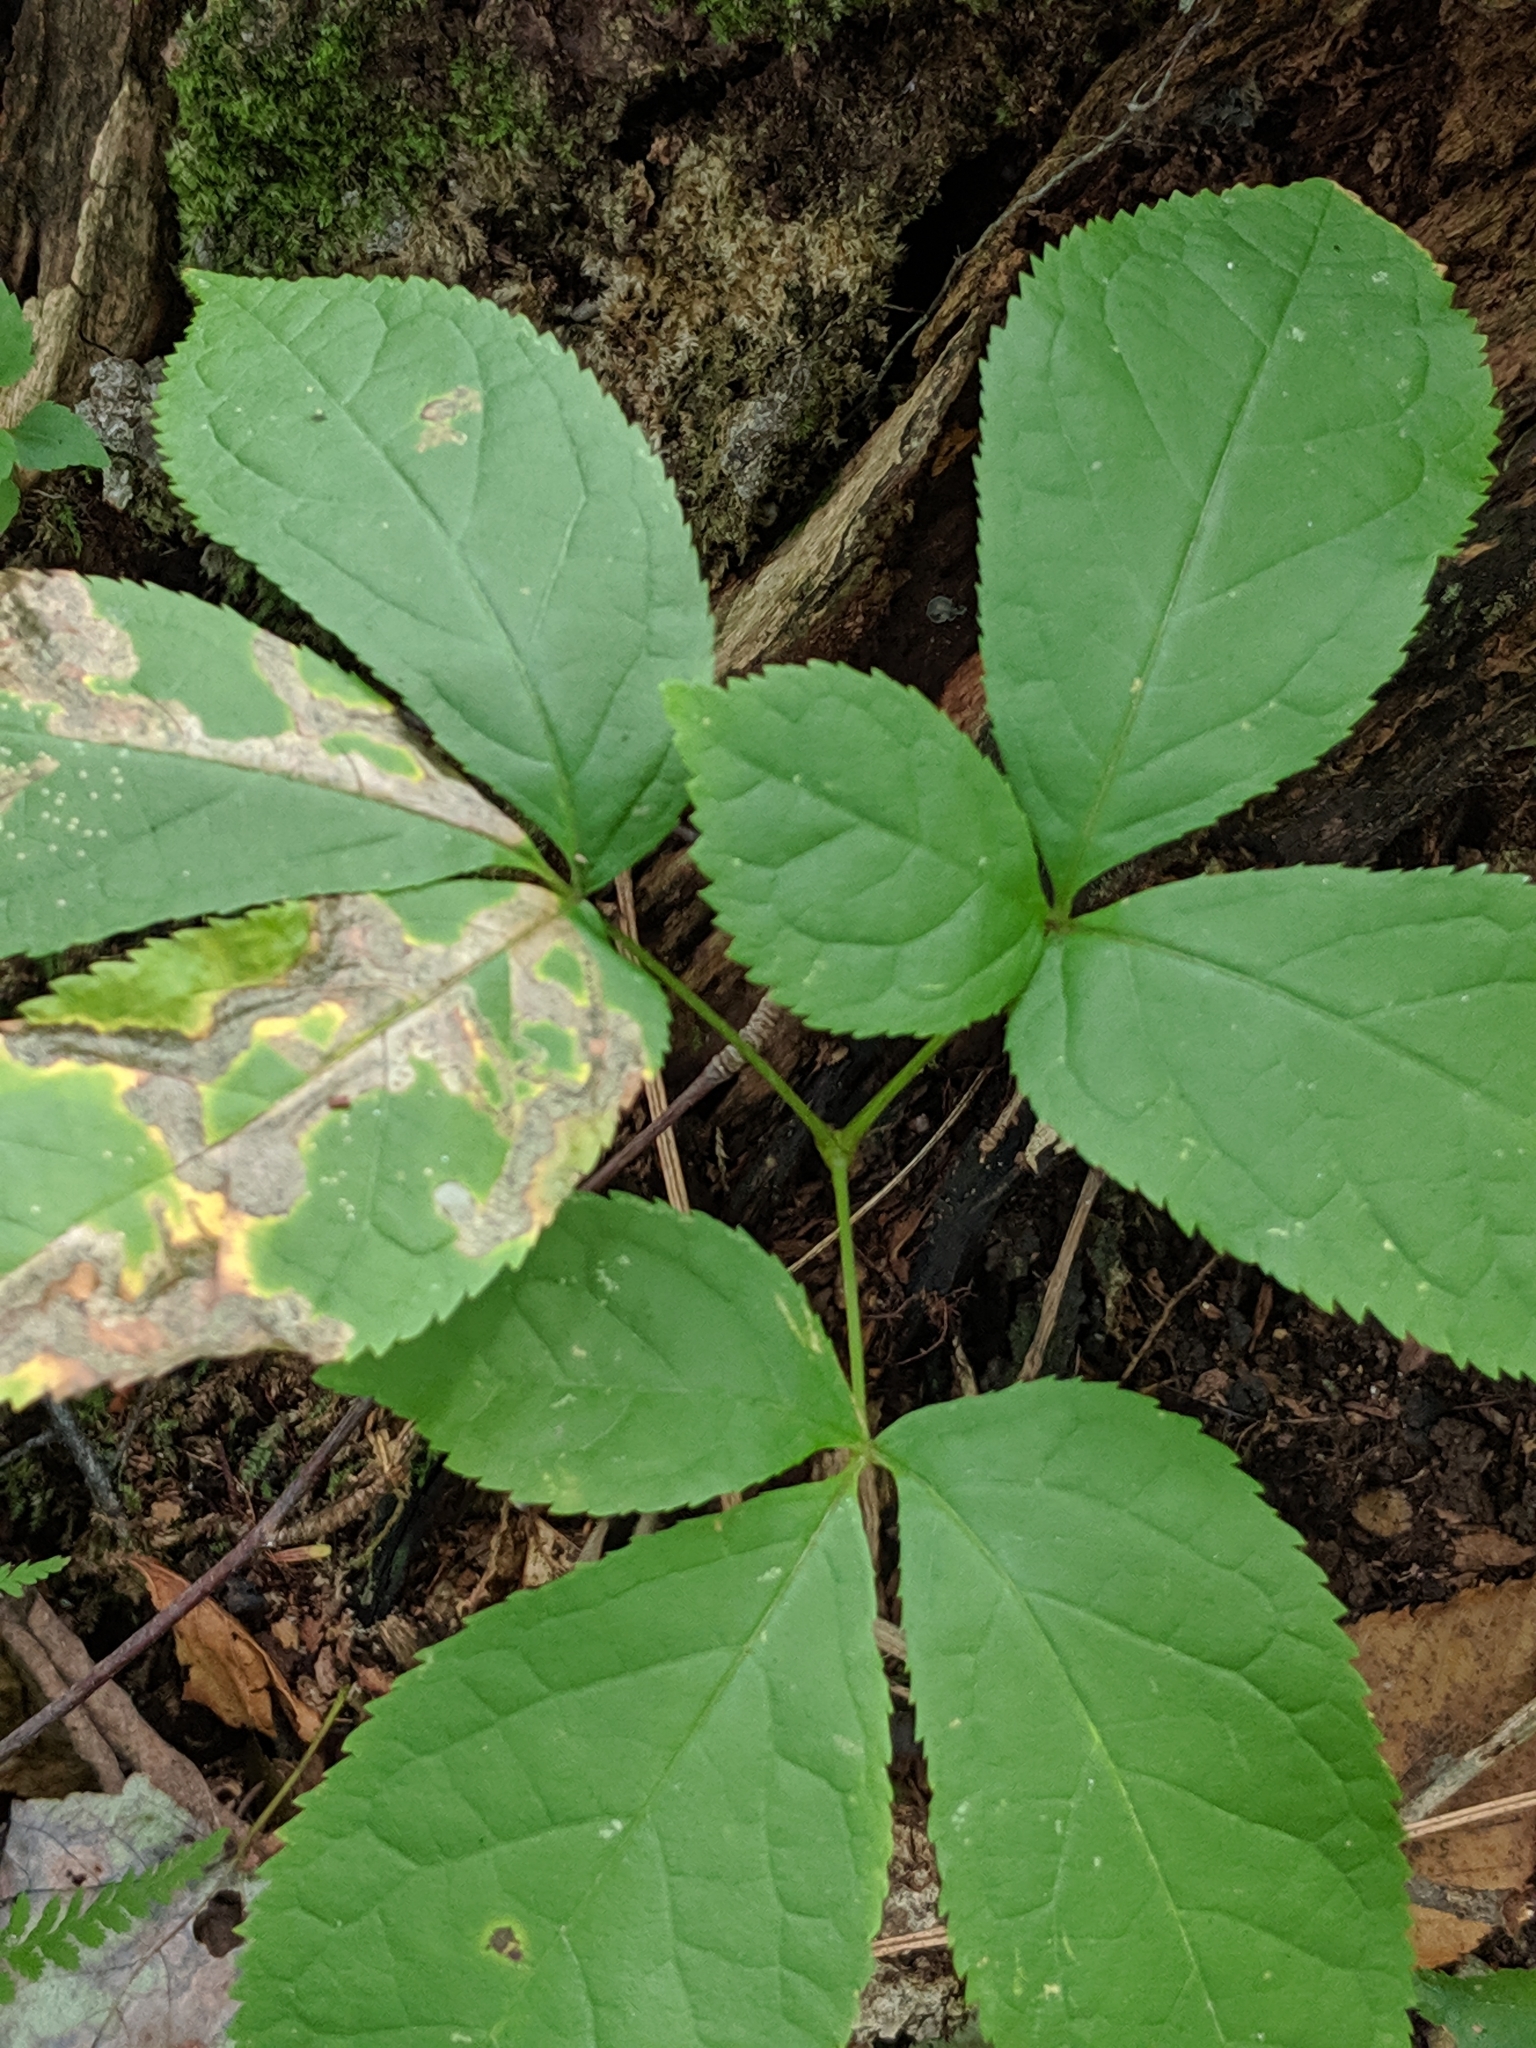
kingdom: Plantae
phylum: Tracheophyta
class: Magnoliopsida
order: Apiales
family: Araliaceae
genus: Aralia
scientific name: Aralia nudicaulis
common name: Wild sarsaparilla
